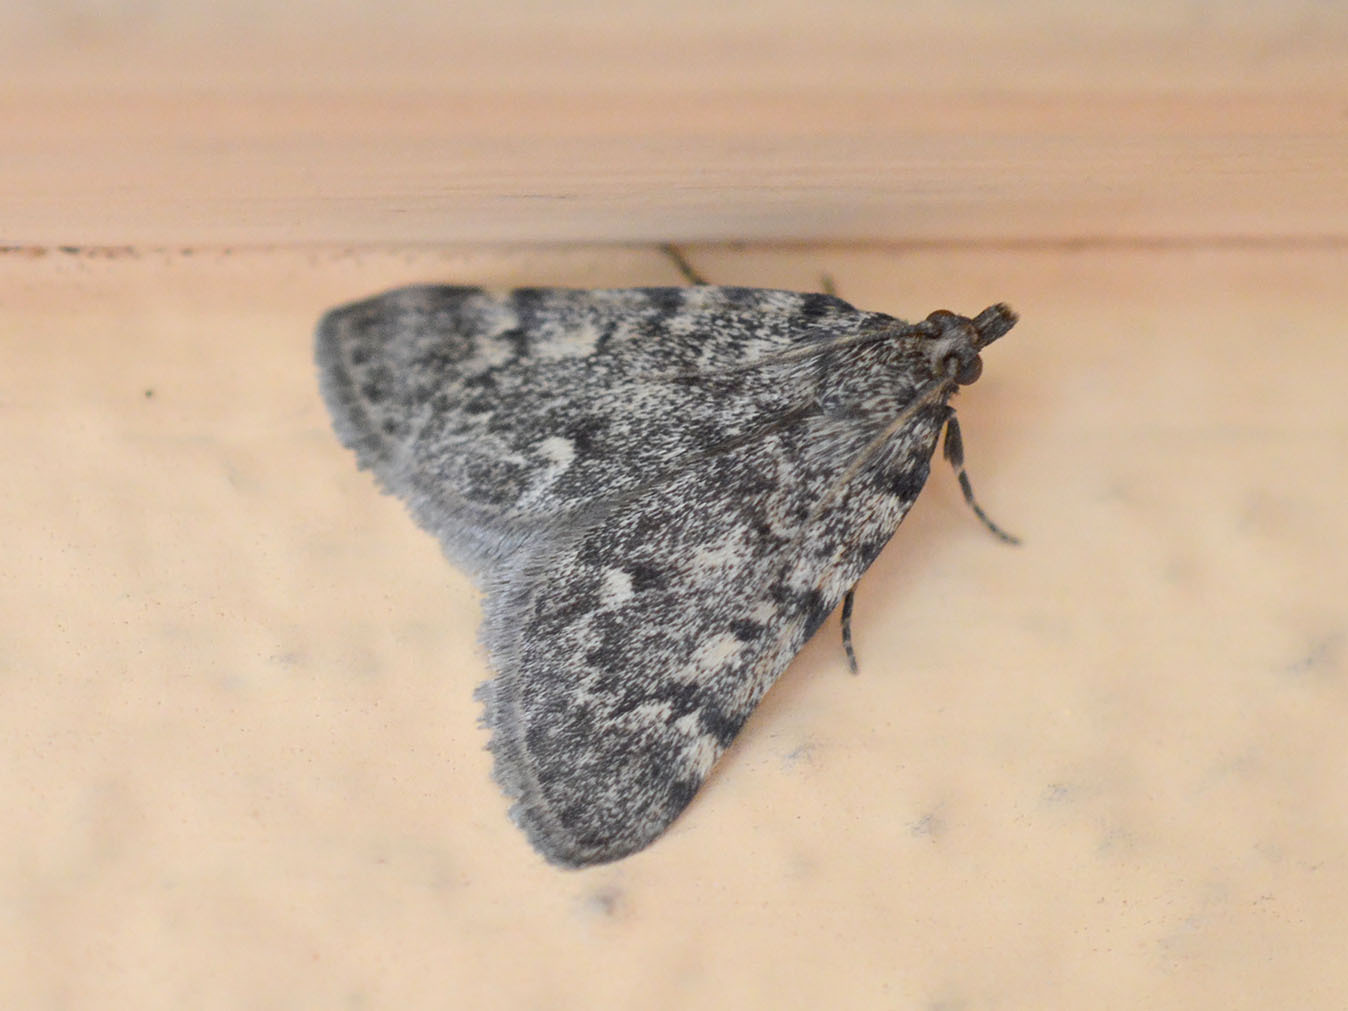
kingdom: Animalia
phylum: Arthropoda
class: Insecta
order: Lepidoptera
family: Pyralidae
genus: Aglossa
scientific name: Aglossa pinguinalis
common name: Large tabby
